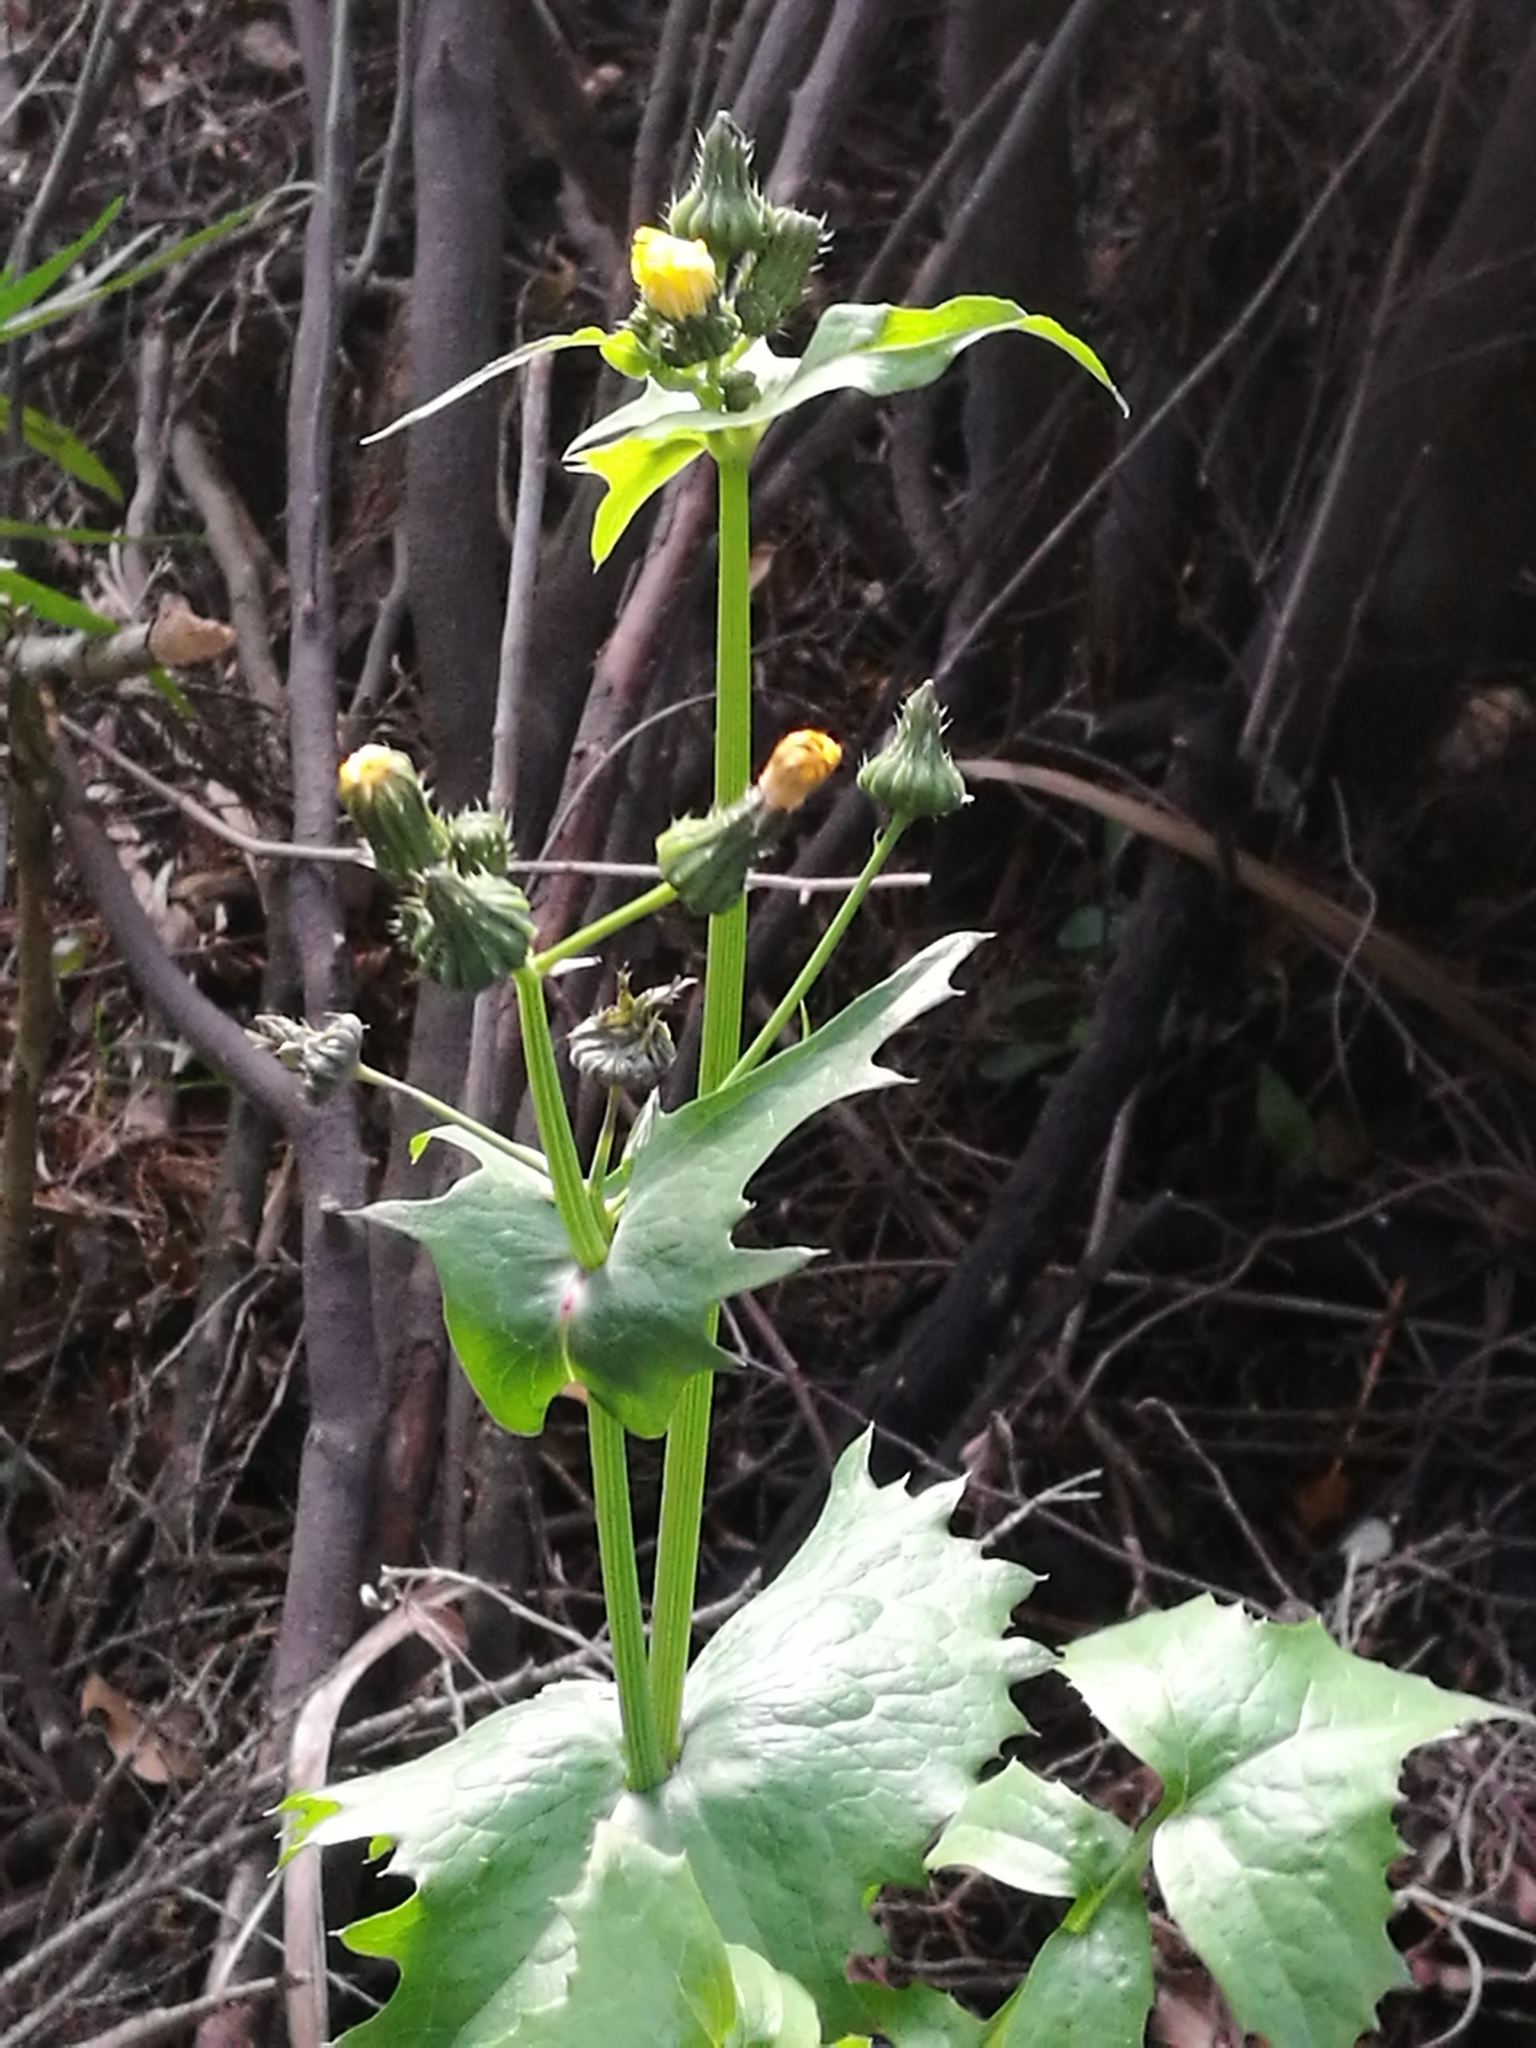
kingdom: Plantae
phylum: Tracheophyta
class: Magnoliopsida
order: Asterales
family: Asteraceae
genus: Sonchus
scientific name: Sonchus oleraceus
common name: Common sowthistle
